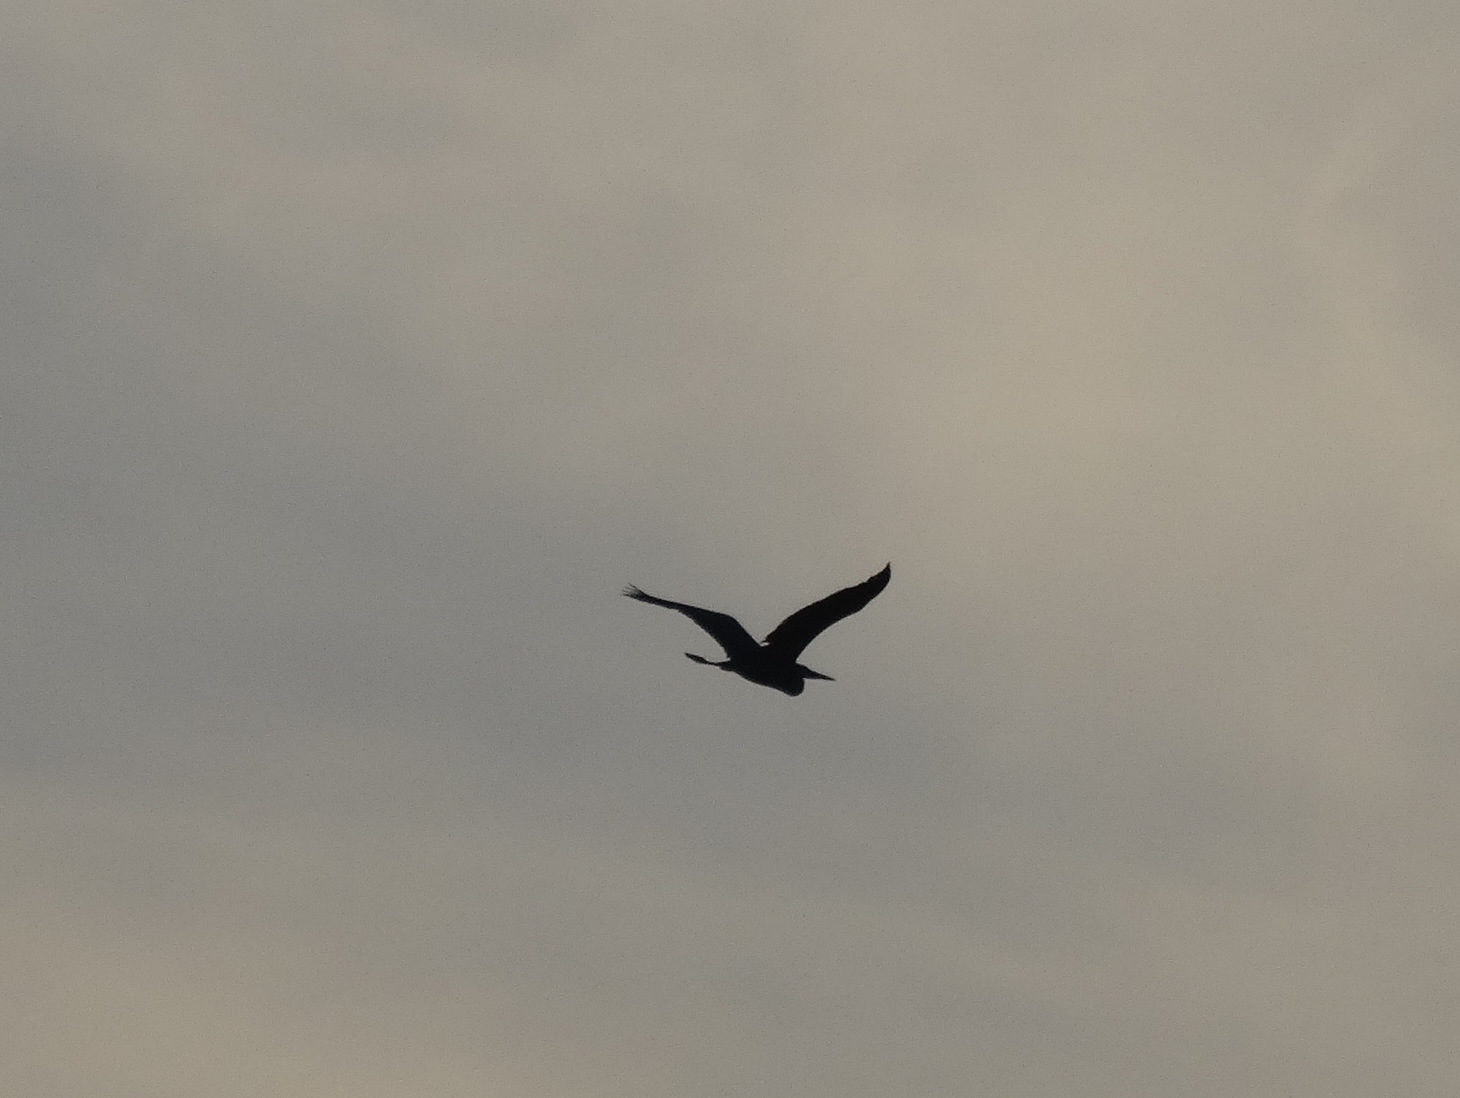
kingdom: Animalia
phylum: Chordata
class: Aves
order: Pelecaniformes
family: Ardeidae
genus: Ardea
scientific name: Ardea herodias
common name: Great blue heron
